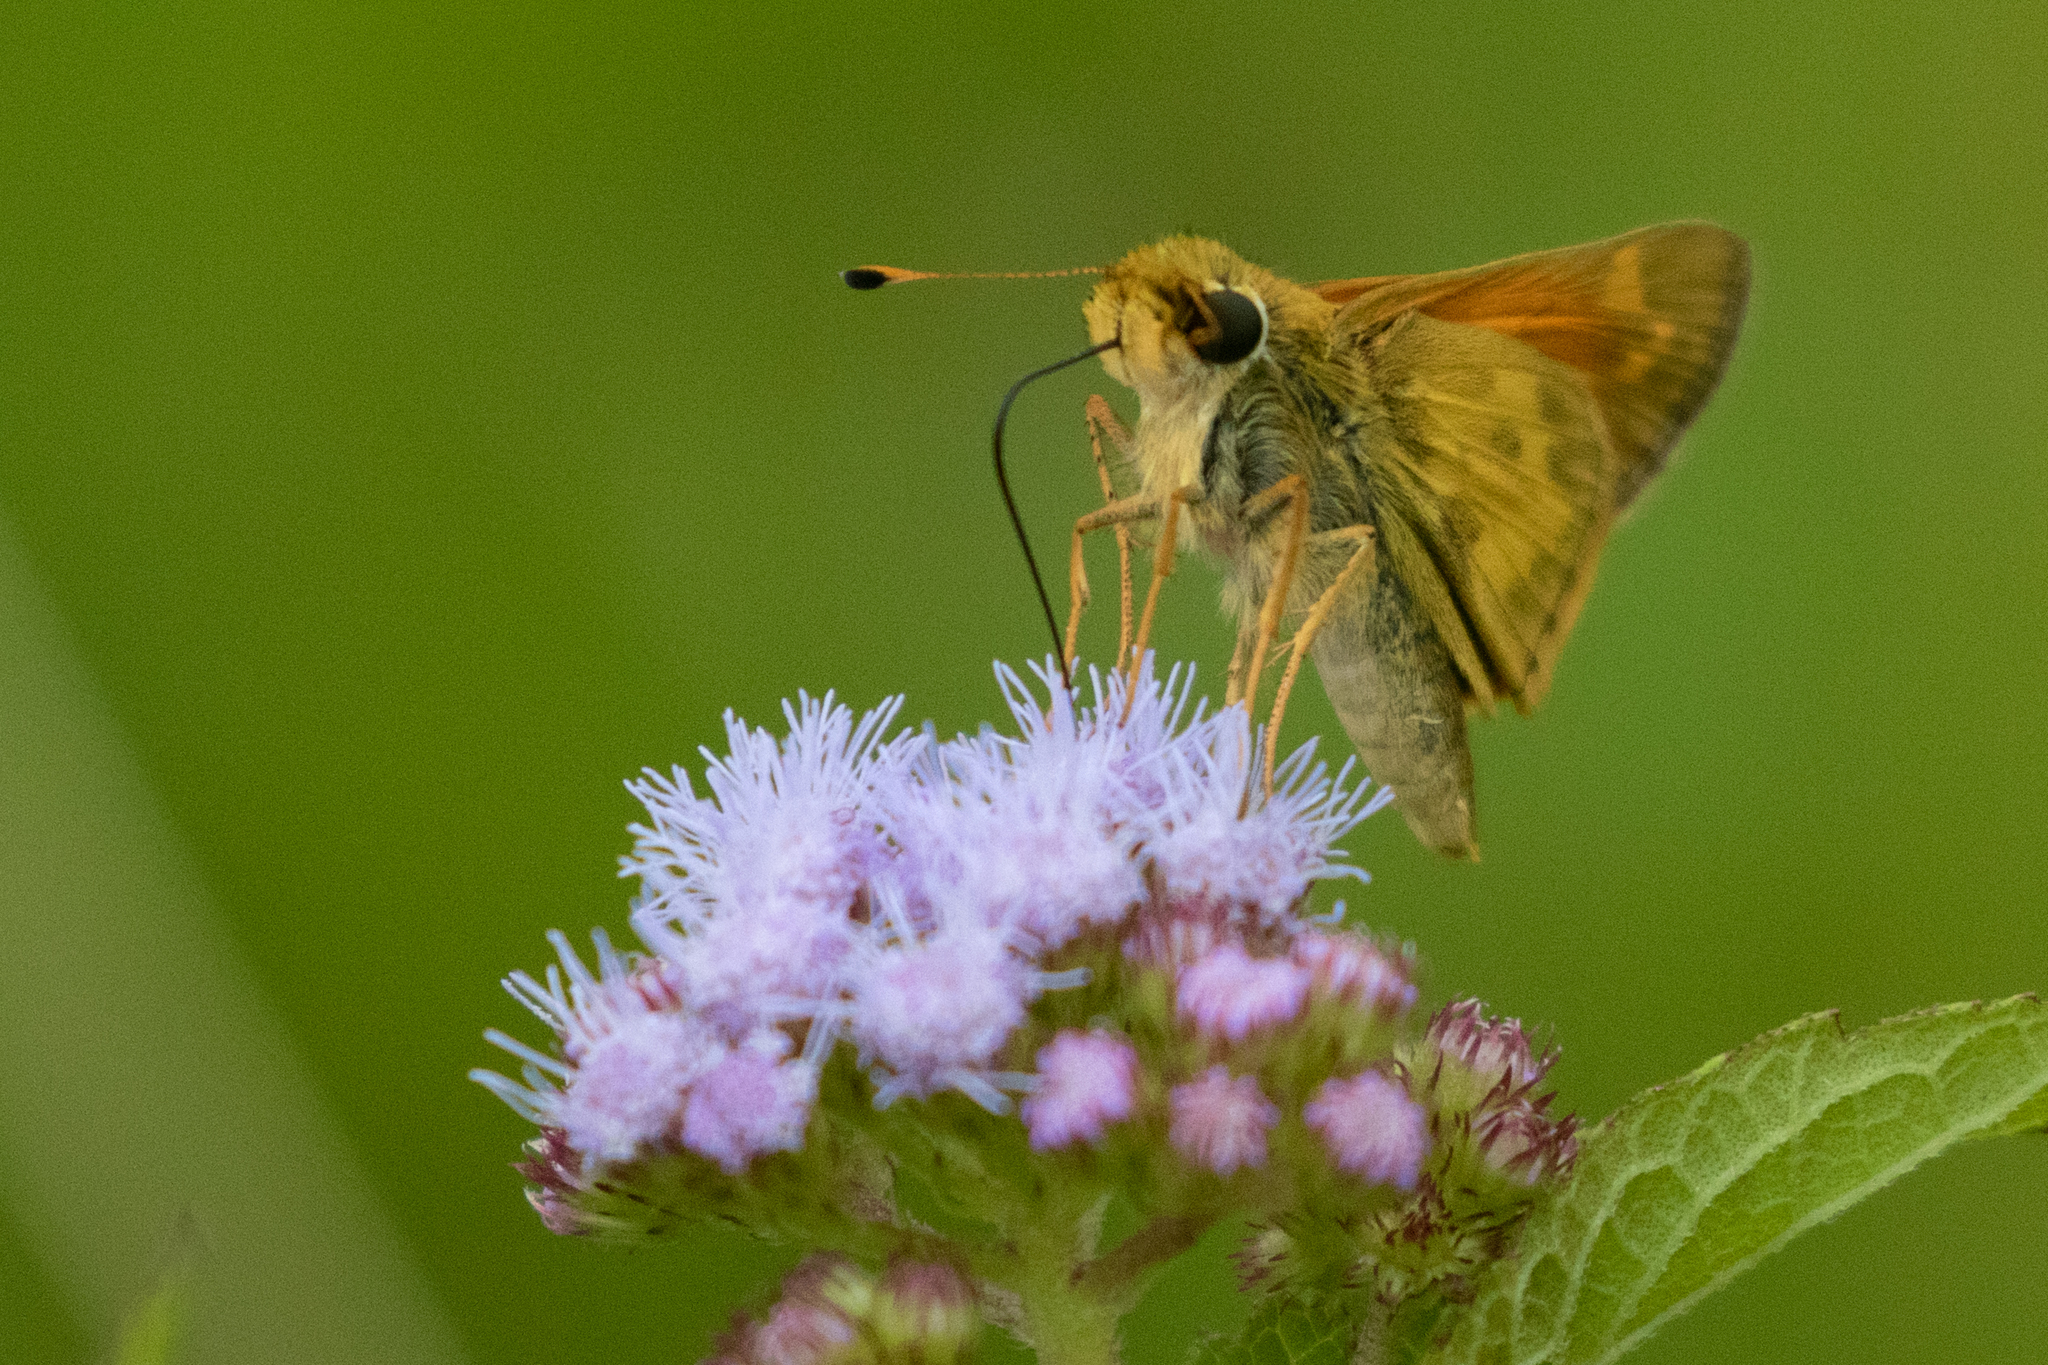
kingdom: Animalia
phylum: Arthropoda
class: Insecta
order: Lepidoptera
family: Hesperiidae
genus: Atalopedes
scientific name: Atalopedes
